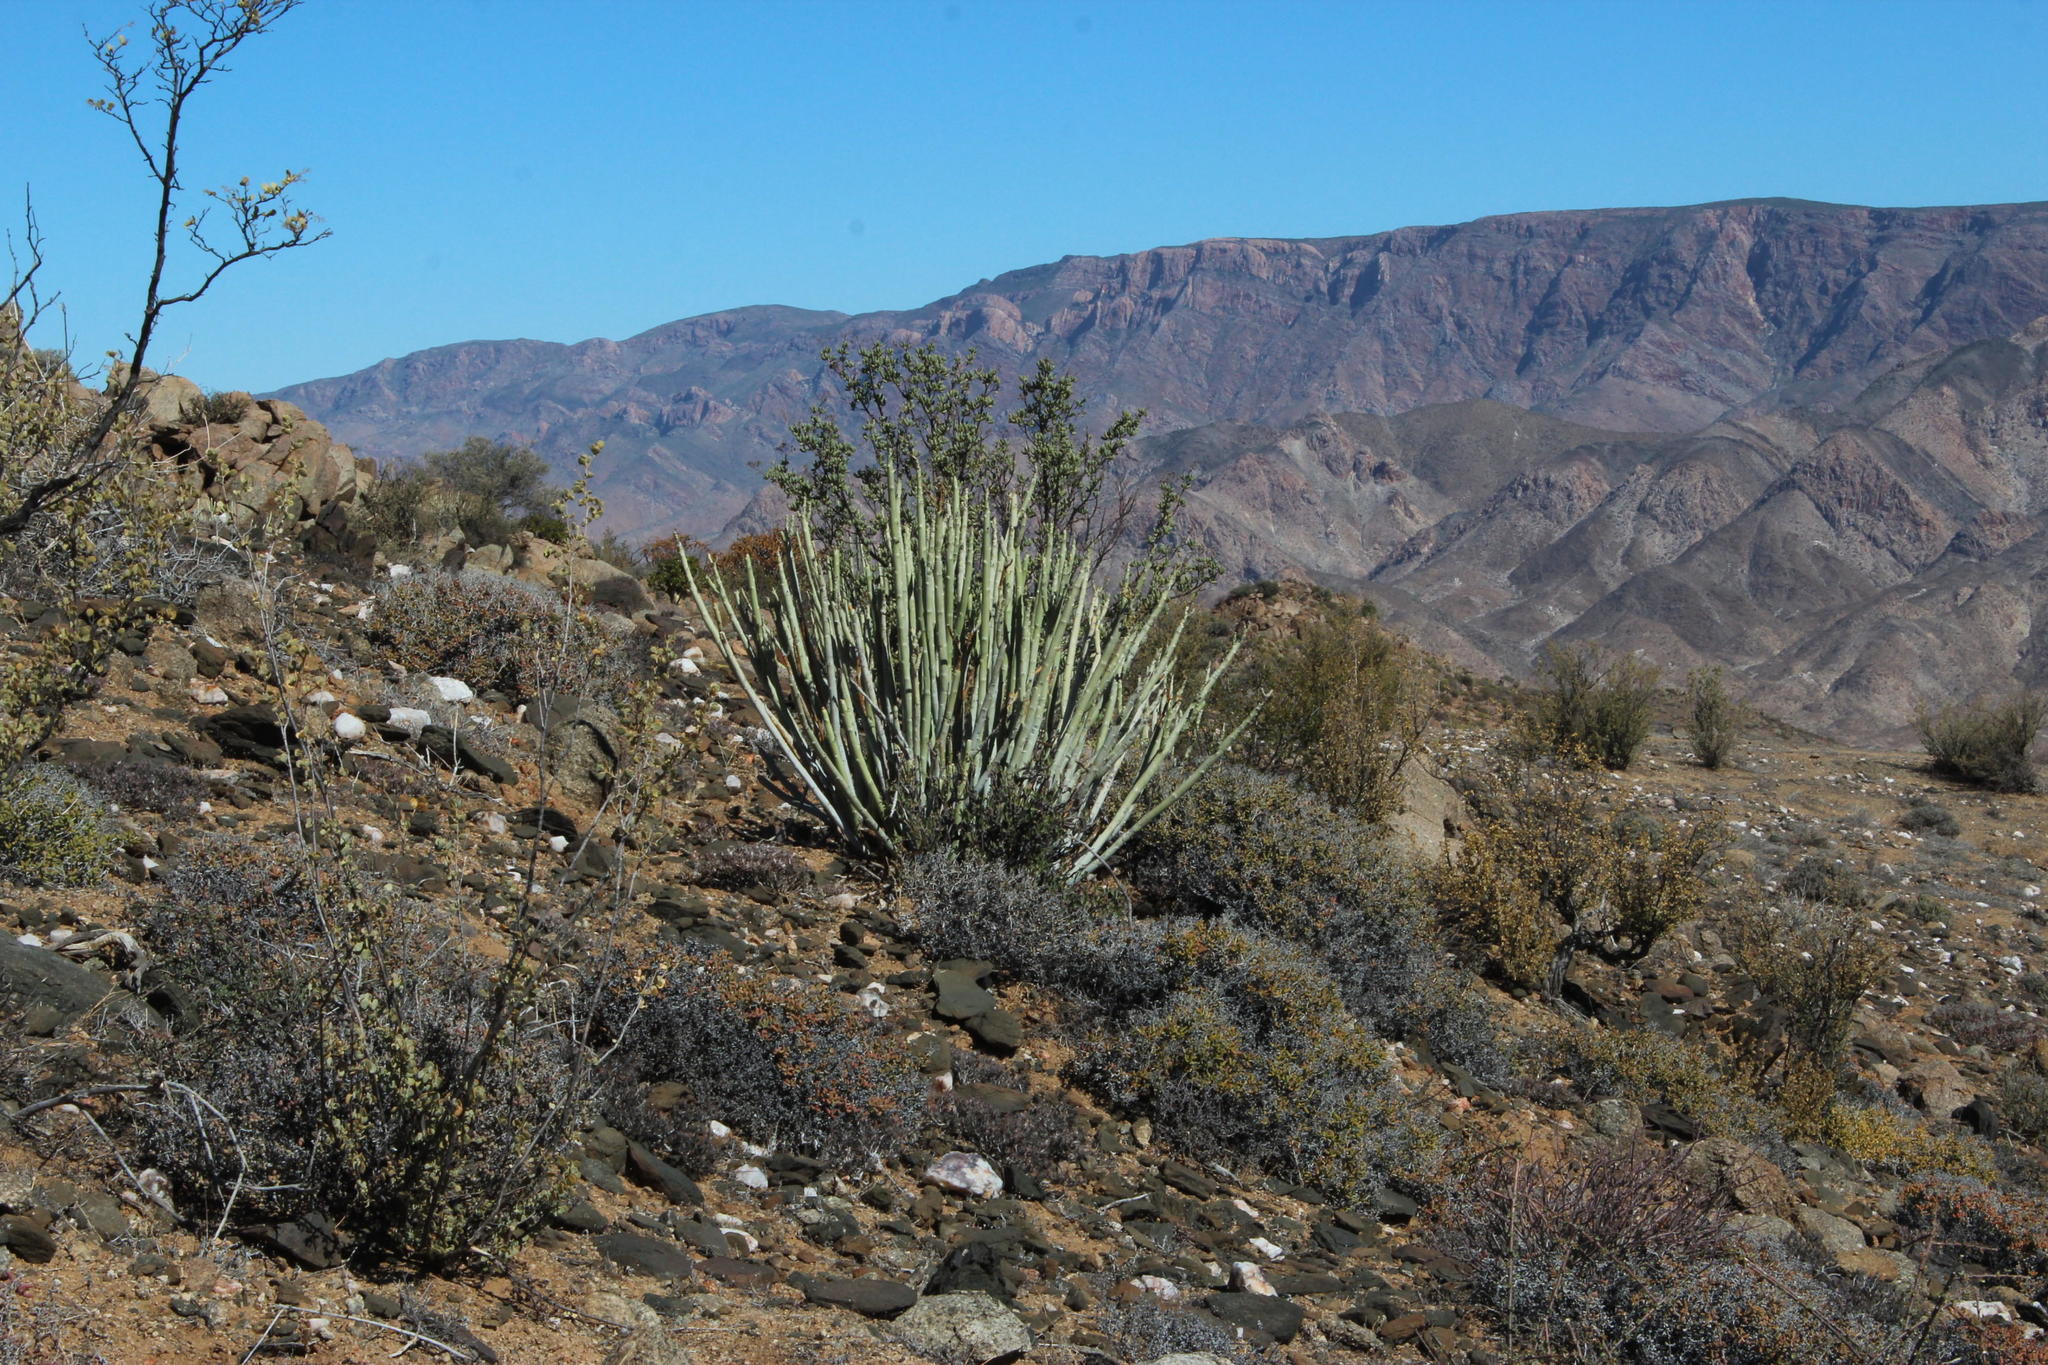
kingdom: Plantae
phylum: Tracheophyta
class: Magnoliopsida
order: Malpighiales
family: Euphorbiaceae
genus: Euphorbia
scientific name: Euphorbia dregeana
